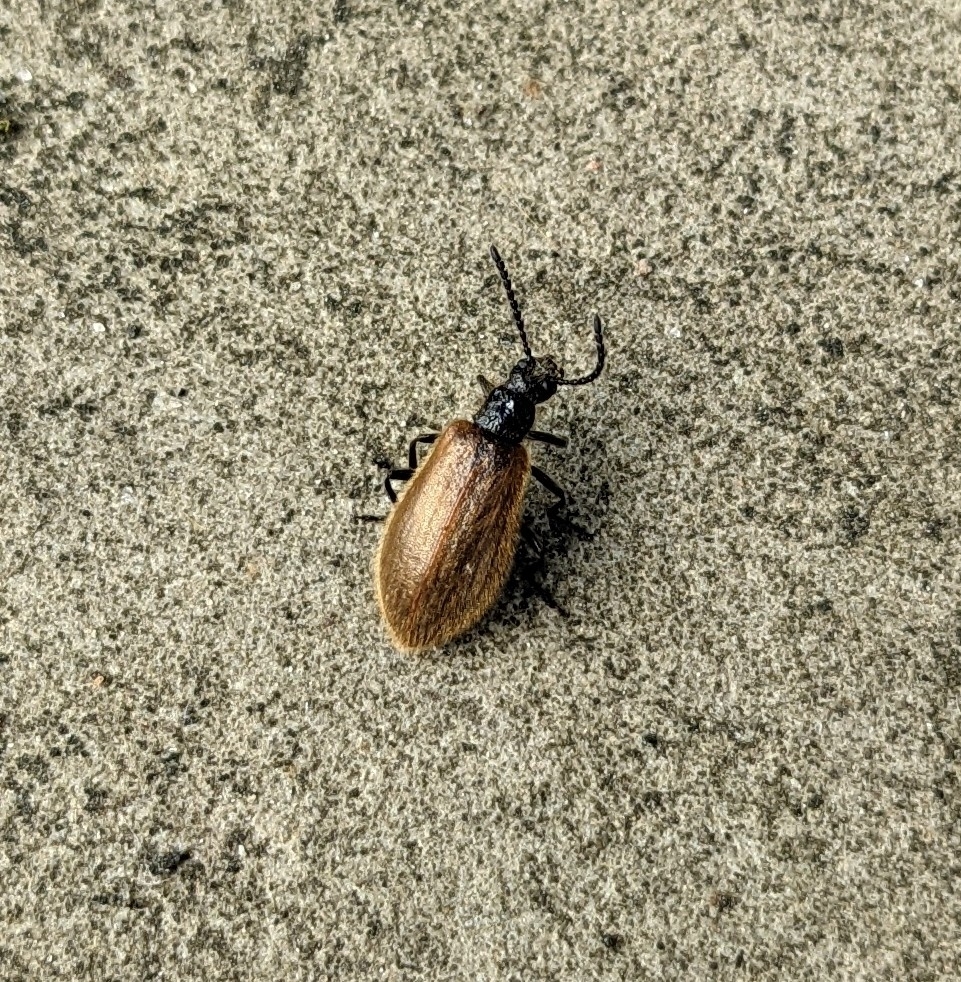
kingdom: Animalia
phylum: Arthropoda
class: Insecta
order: Coleoptera
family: Tenebrionidae
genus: Lagria
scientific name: Lagria hirta
